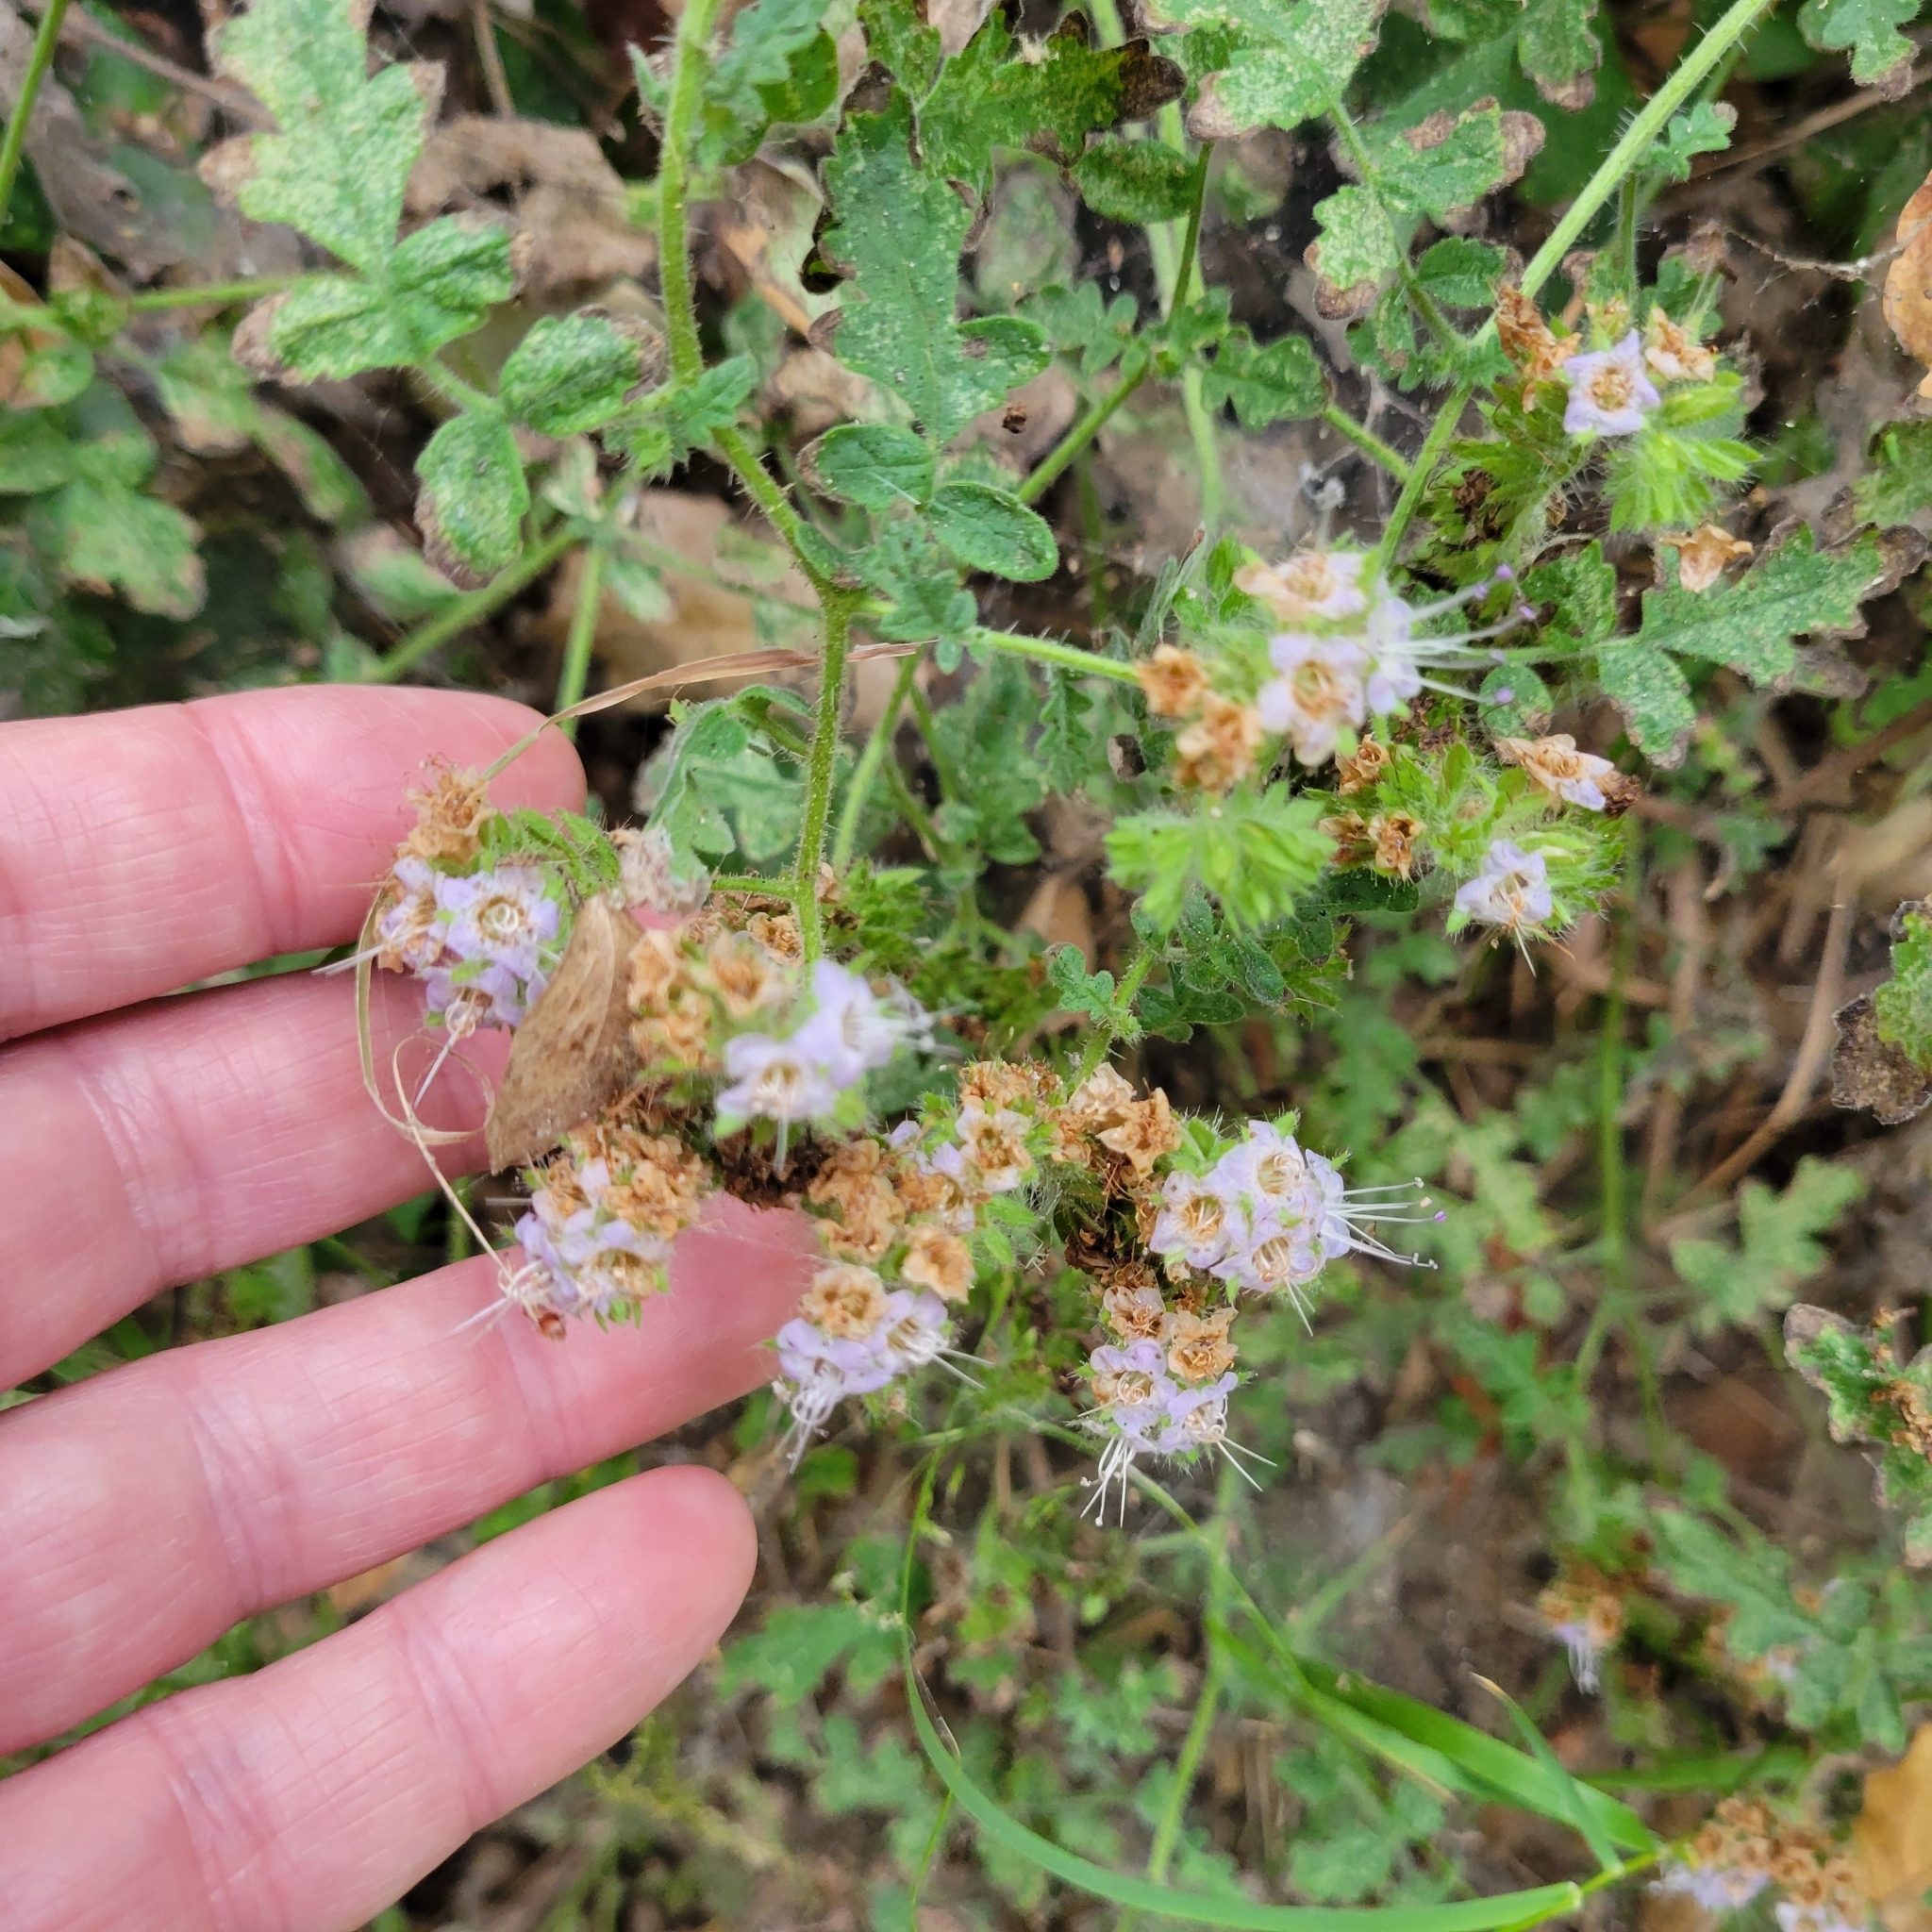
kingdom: Plantae
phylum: Tracheophyta
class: Magnoliopsida
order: Boraginales
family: Hydrophyllaceae
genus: Phacelia
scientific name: Phacelia ramosissima
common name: Branching phacelia
